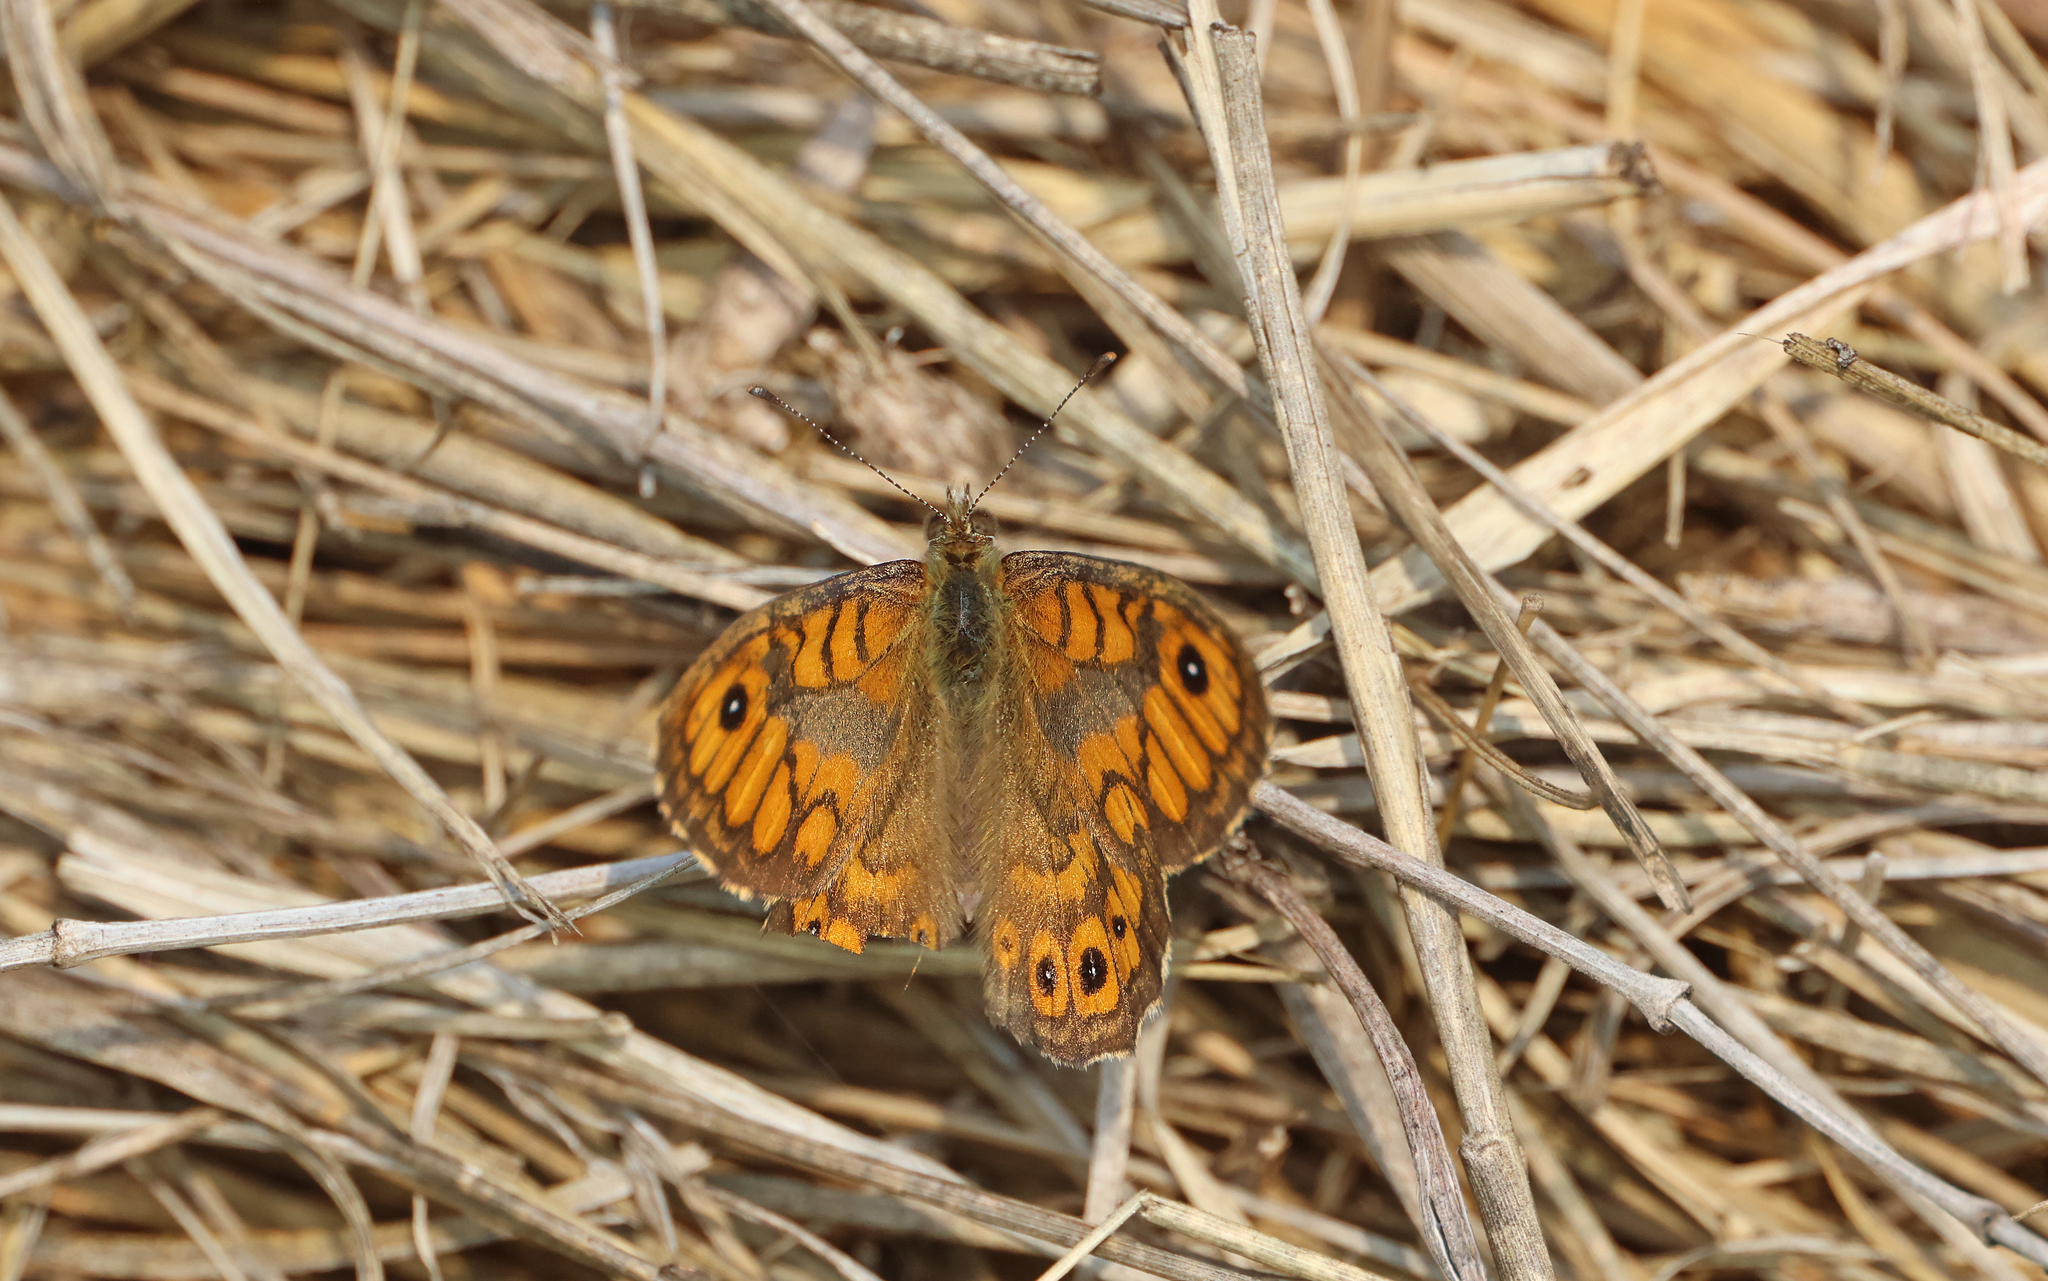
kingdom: Animalia
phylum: Arthropoda
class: Insecta
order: Lepidoptera
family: Nymphalidae
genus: Pararge
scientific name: Pararge Lasiommata megera
